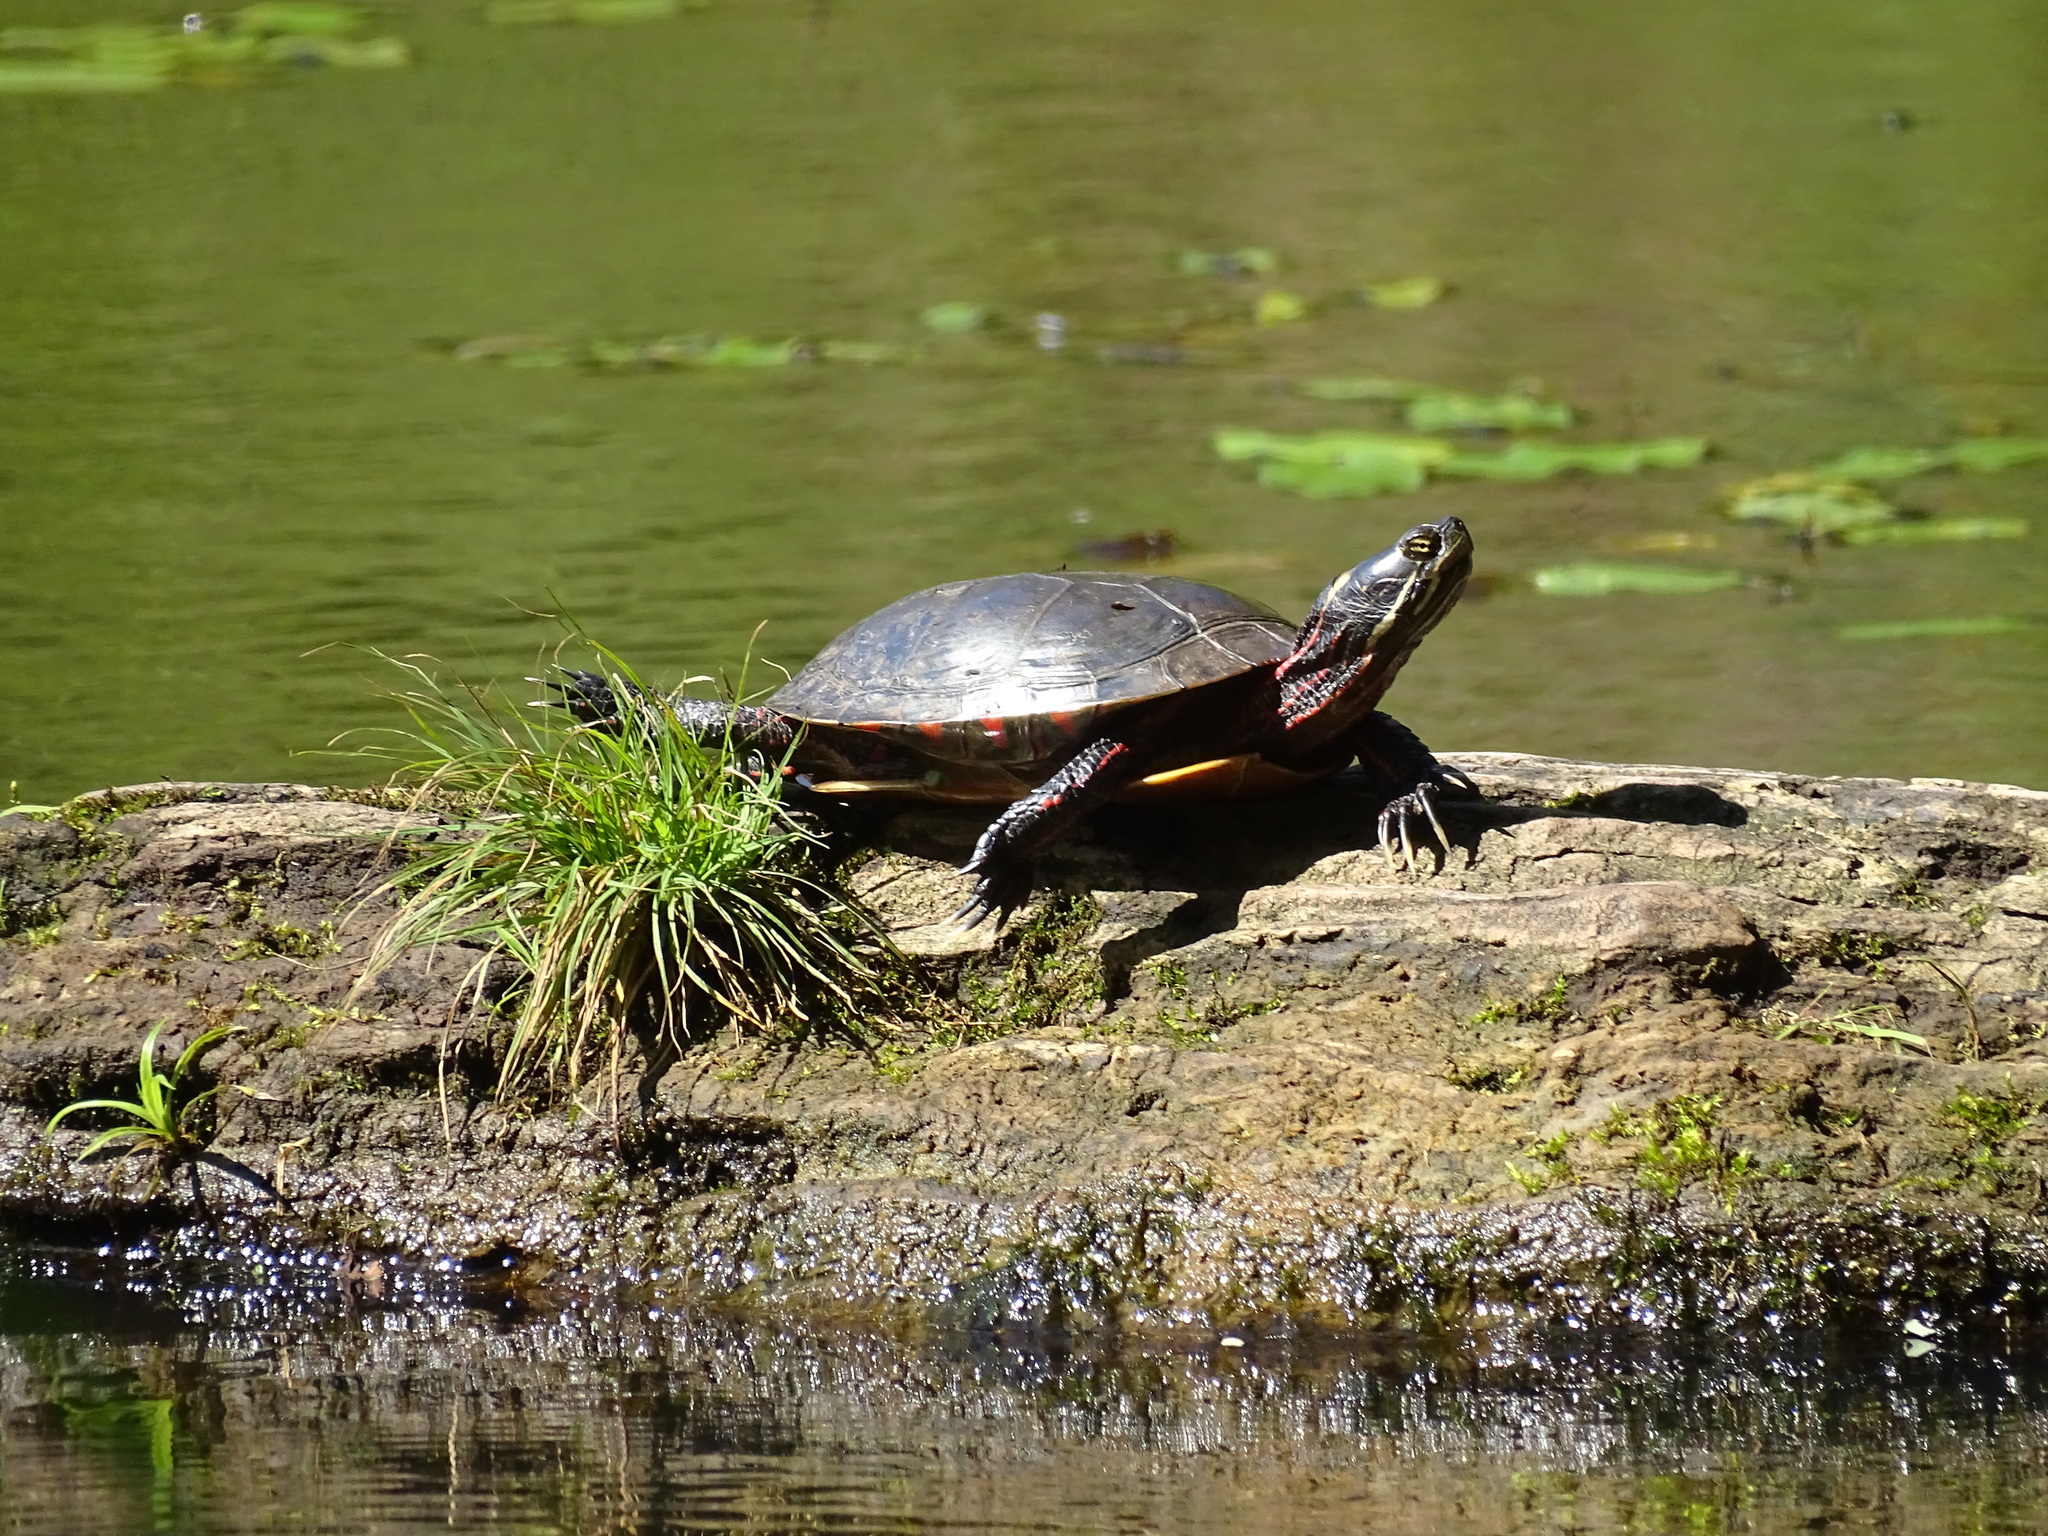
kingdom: Animalia
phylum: Chordata
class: Testudines
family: Emydidae
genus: Chrysemys
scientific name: Chrysemys picta
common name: Painted turtle
